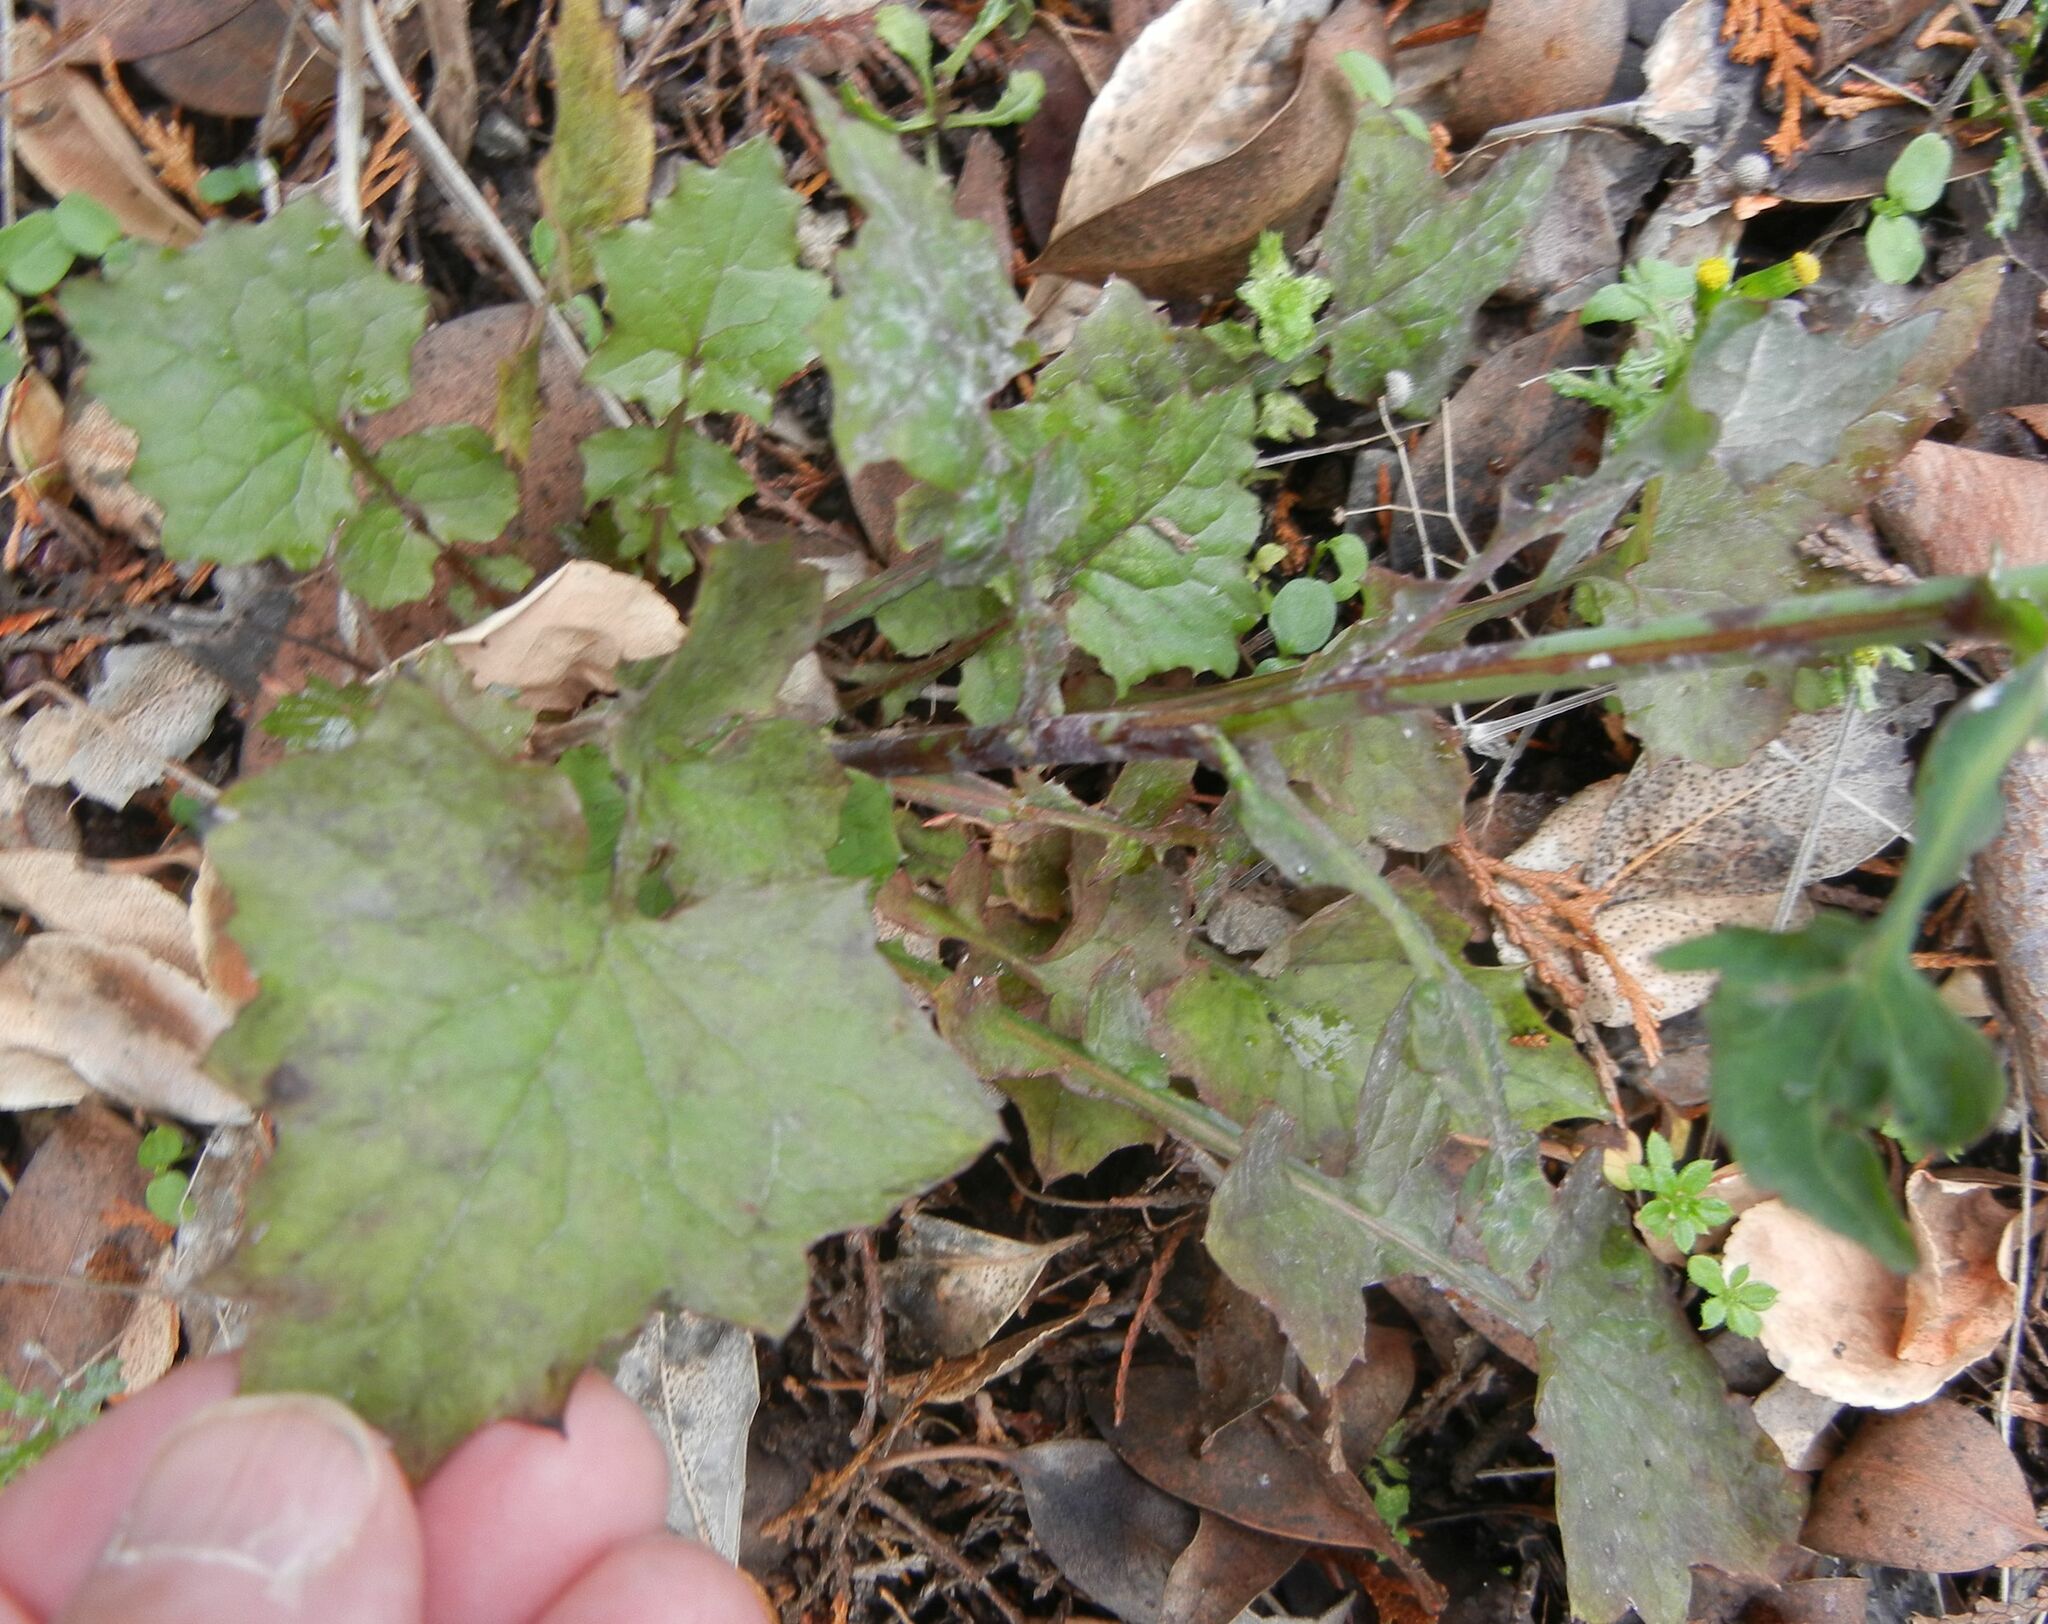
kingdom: Plantae
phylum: Tracheophyta
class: Magnoliopsida
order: Asterales
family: Asteraceae
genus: Mycelis
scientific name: Mycelis muralis
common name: Wall lettuce
